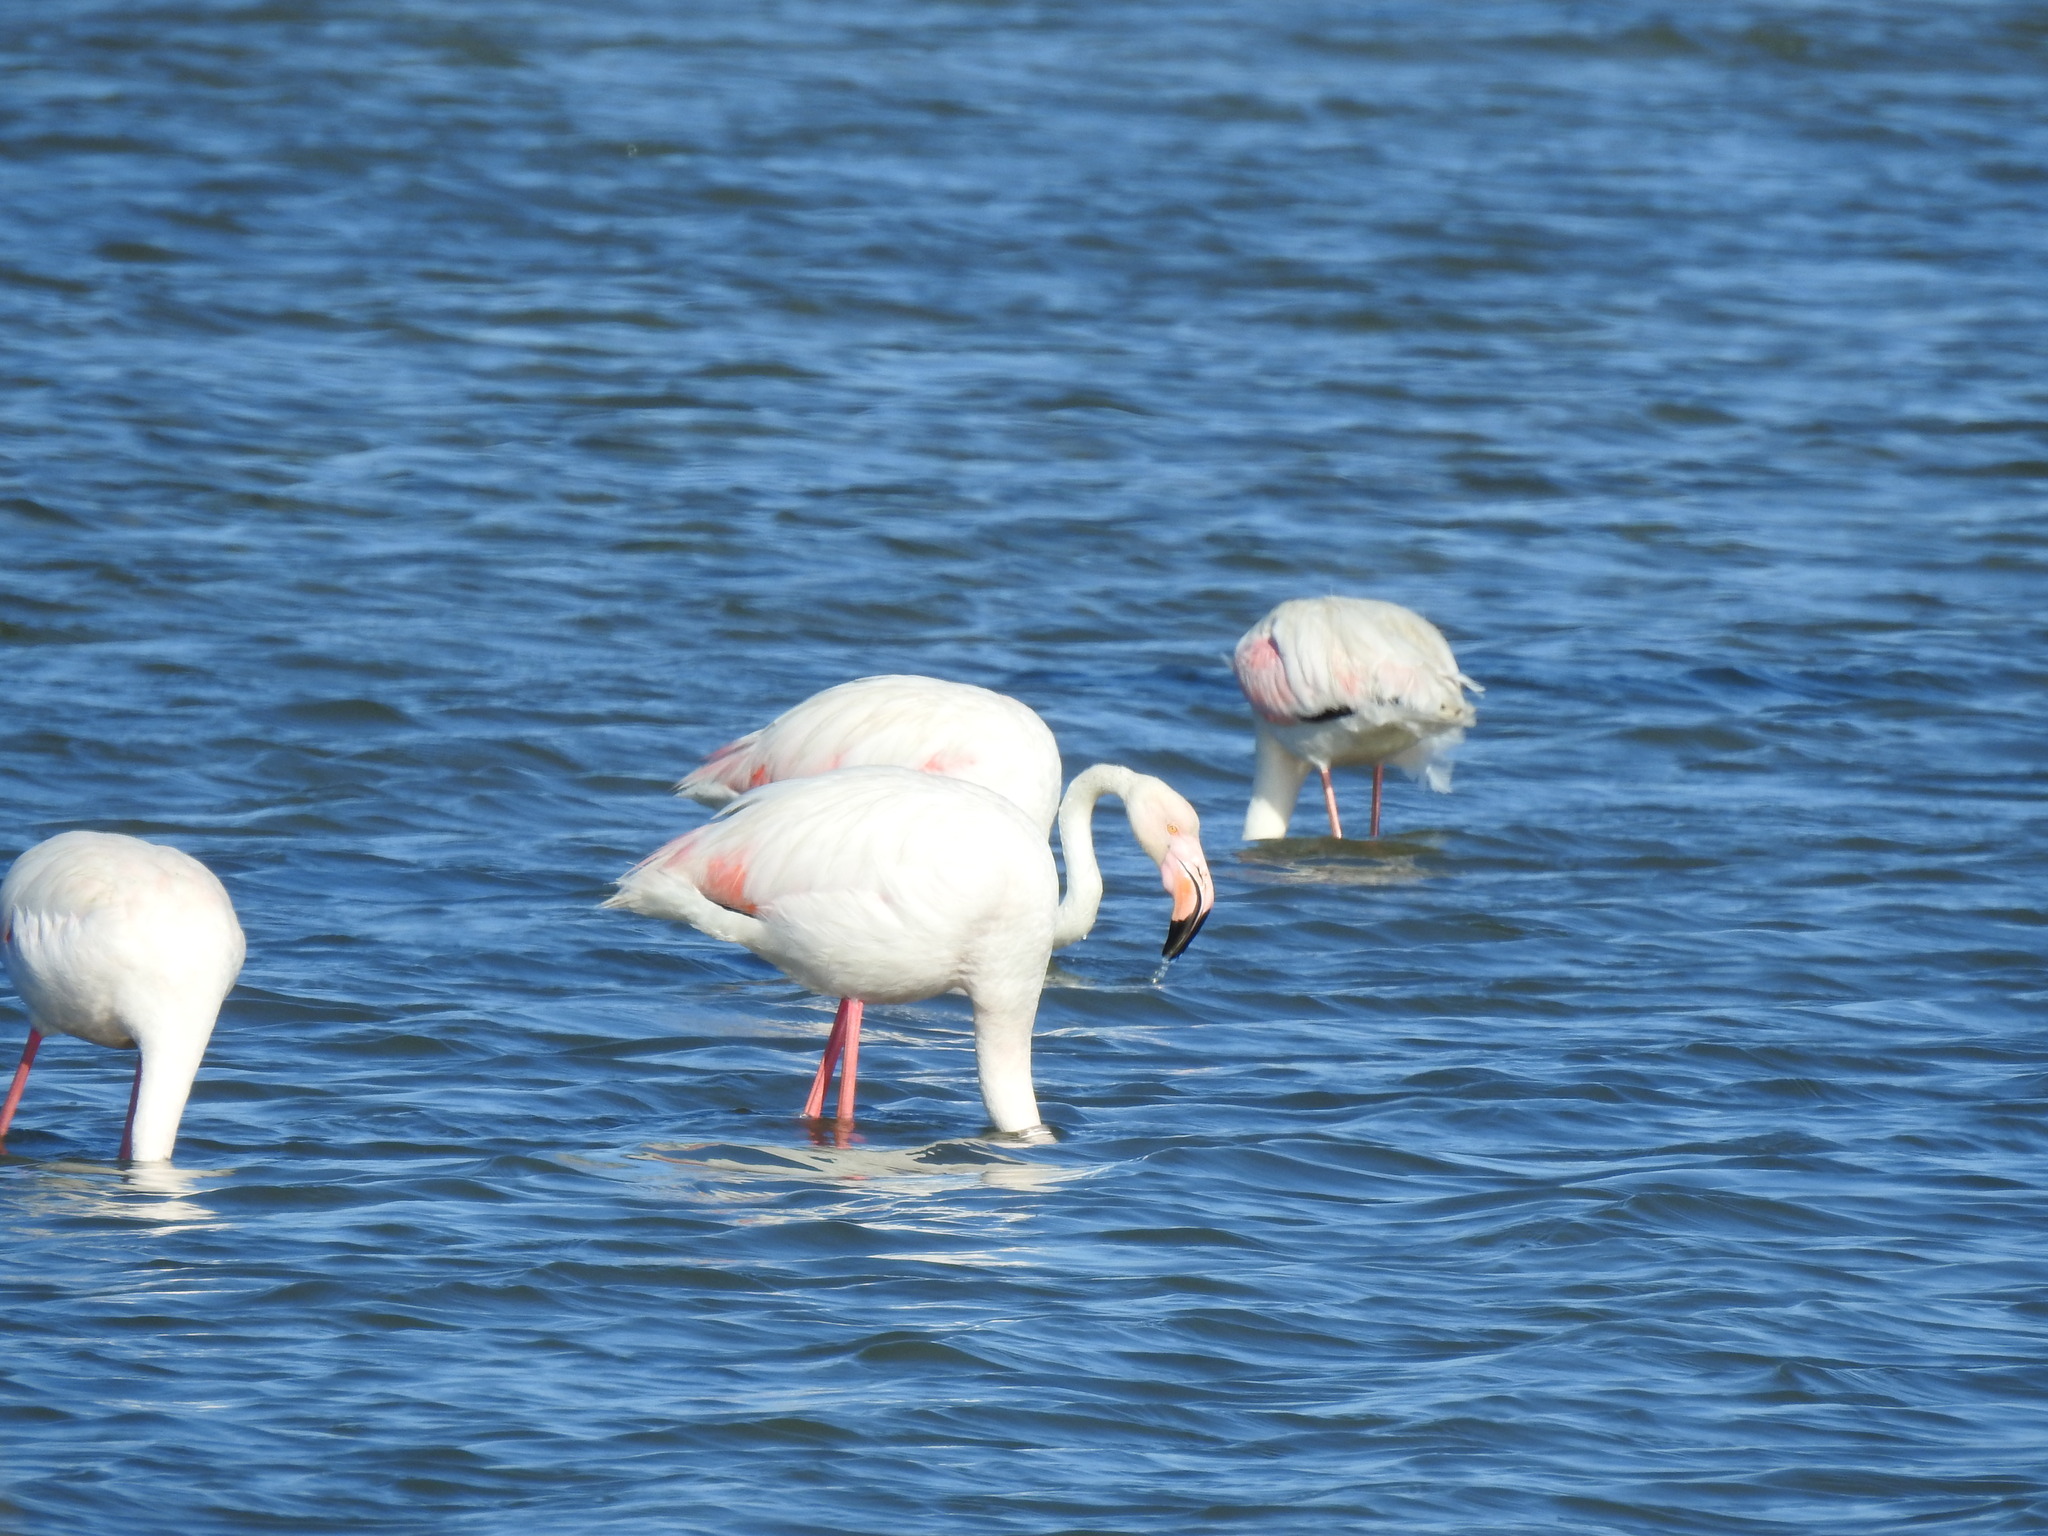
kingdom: Animalia
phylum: Chordata
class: Aves
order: Phoenicopteriformes
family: Phoenicopteridae
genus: Phoenicopterus
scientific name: Phoenicopterus roseus
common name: Greater flamingo
